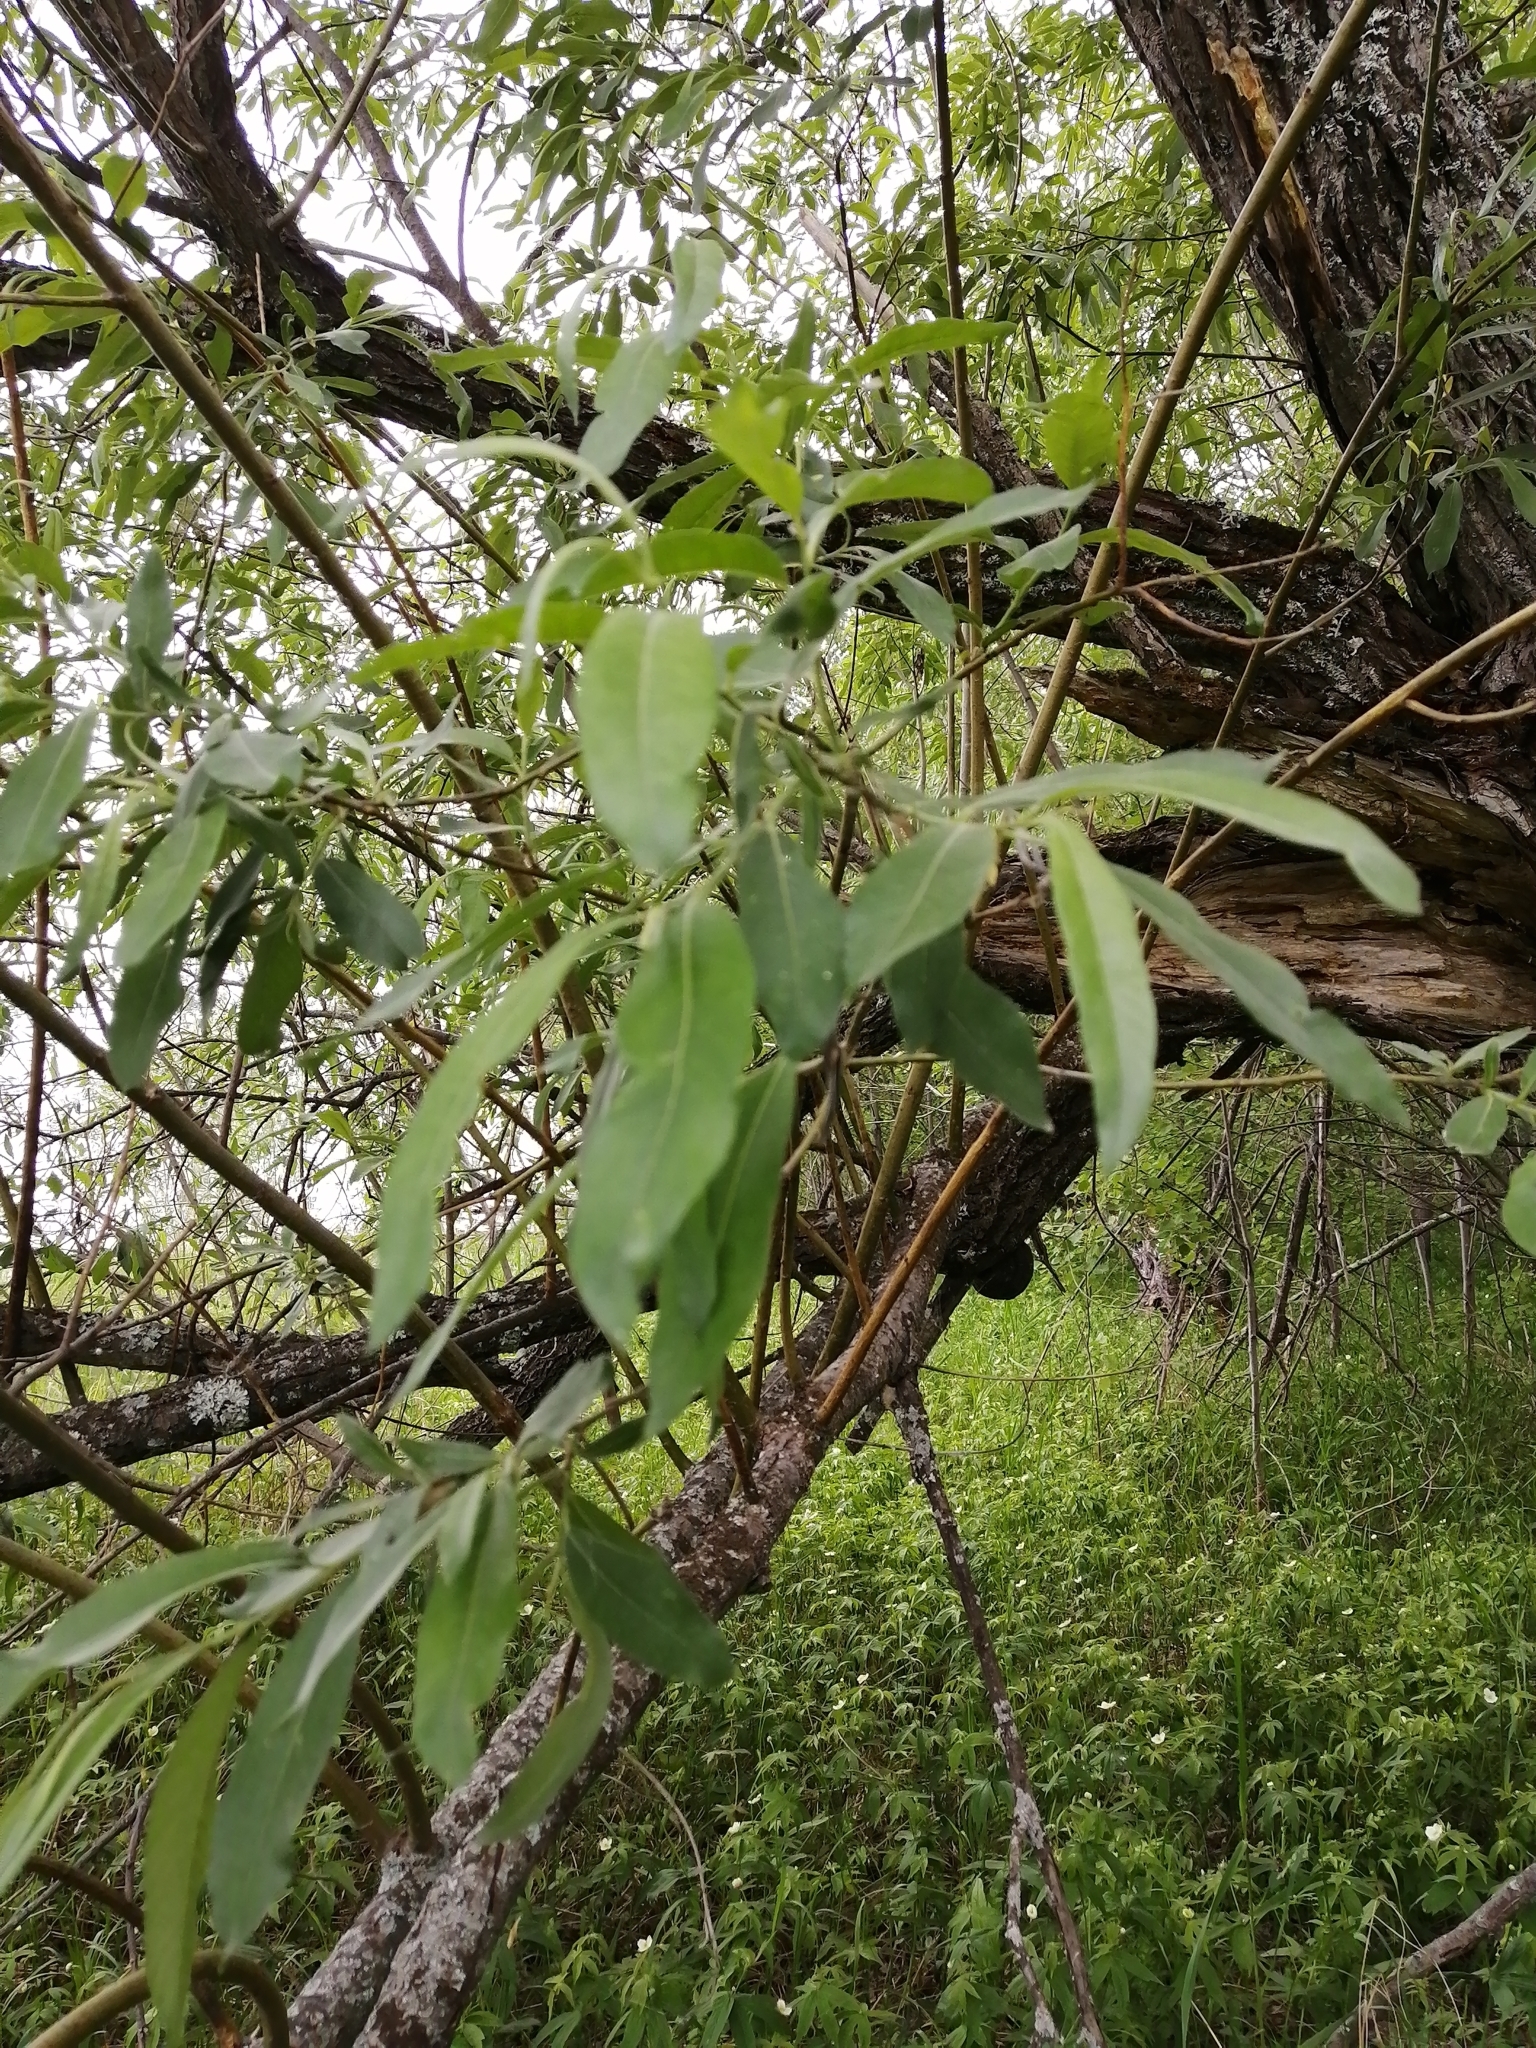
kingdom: Plantae
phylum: Tracheophyta
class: Magnoliopsida
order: Malpighiales
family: Salicaceae
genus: Salix
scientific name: Salix gmelinii
